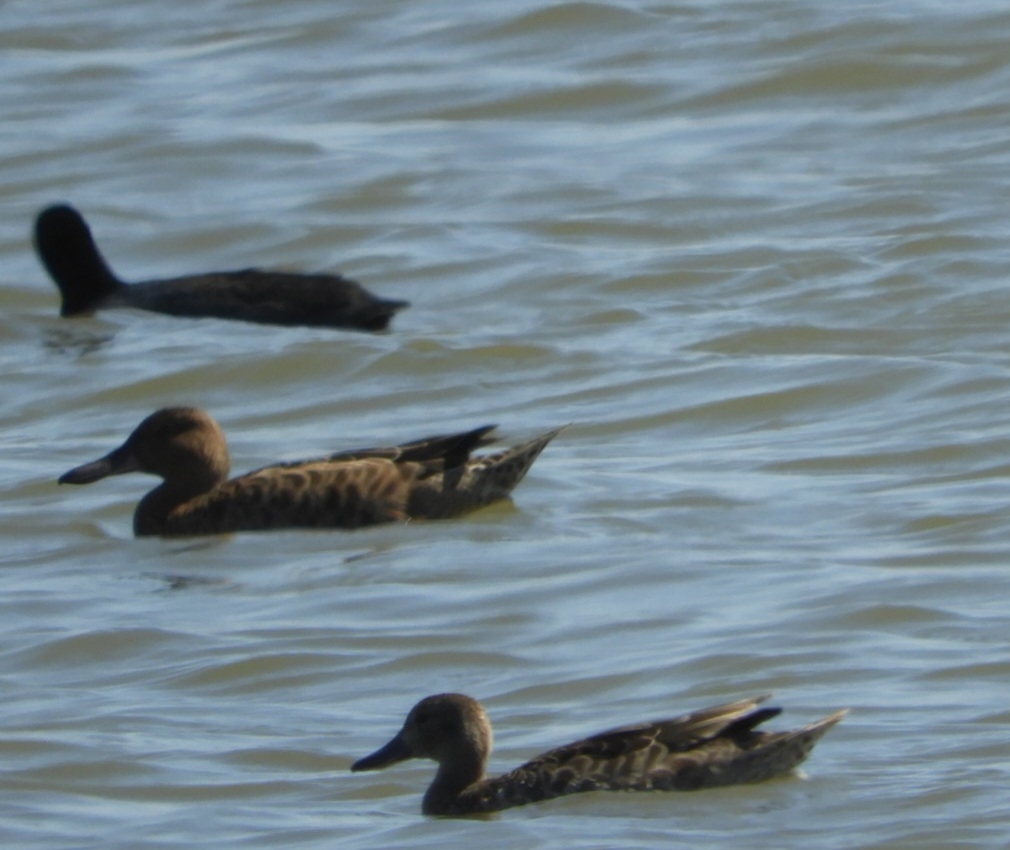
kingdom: Animalia
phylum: Chordata
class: Aves
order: Anseriformes
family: Anatidae
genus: Spatula
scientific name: Spatula cyanoptera
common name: Cinnamon teal
